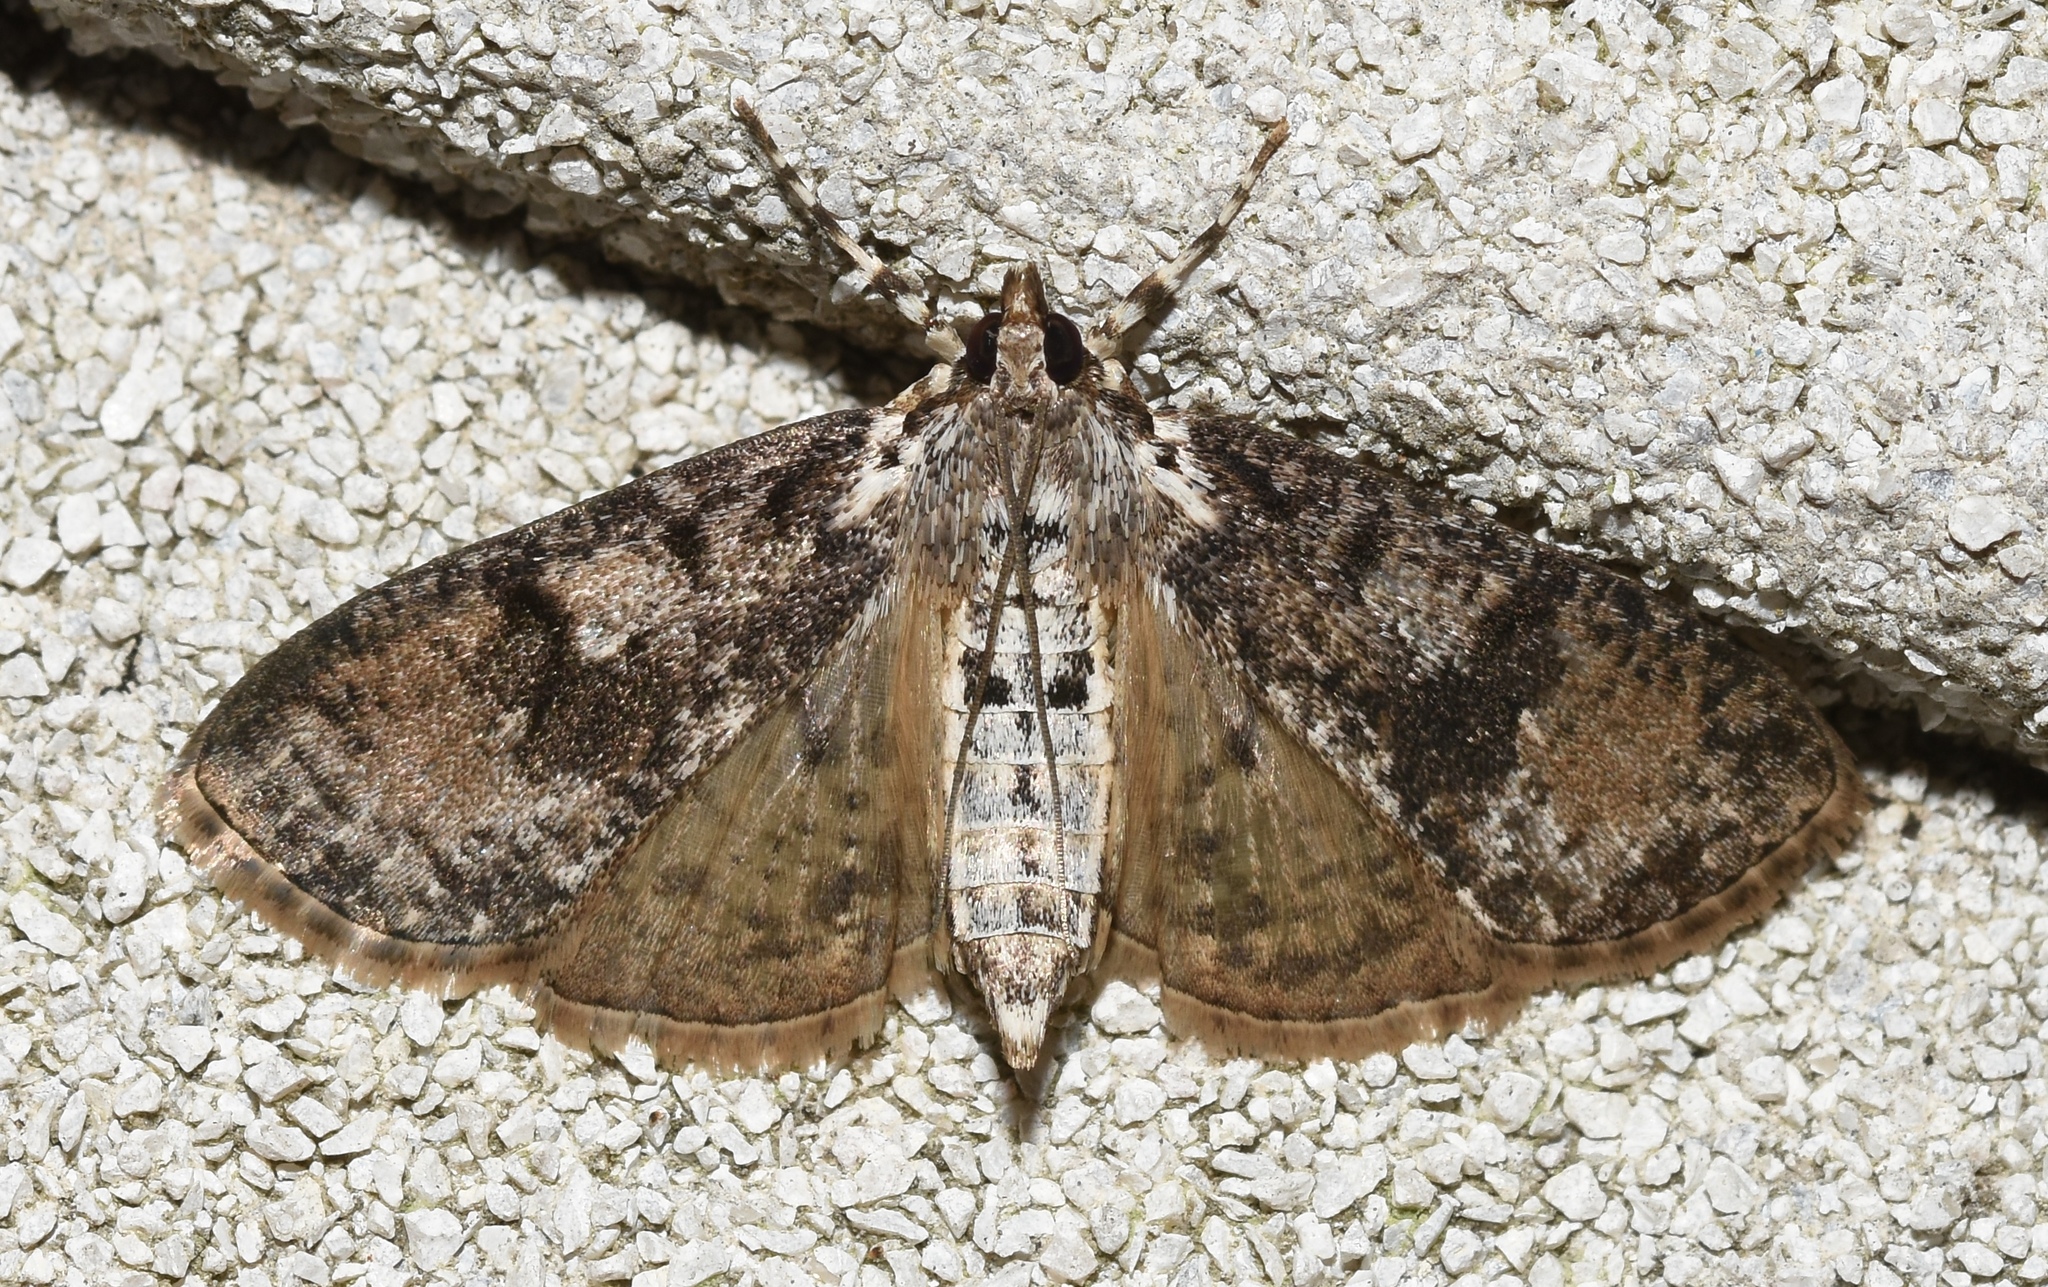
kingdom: Animalia
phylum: Arthropoda
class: Insecta
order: Lepidoptera
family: Crambidae
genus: Palpita
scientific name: Palpita magniferalis
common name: Splendid palpita moth
